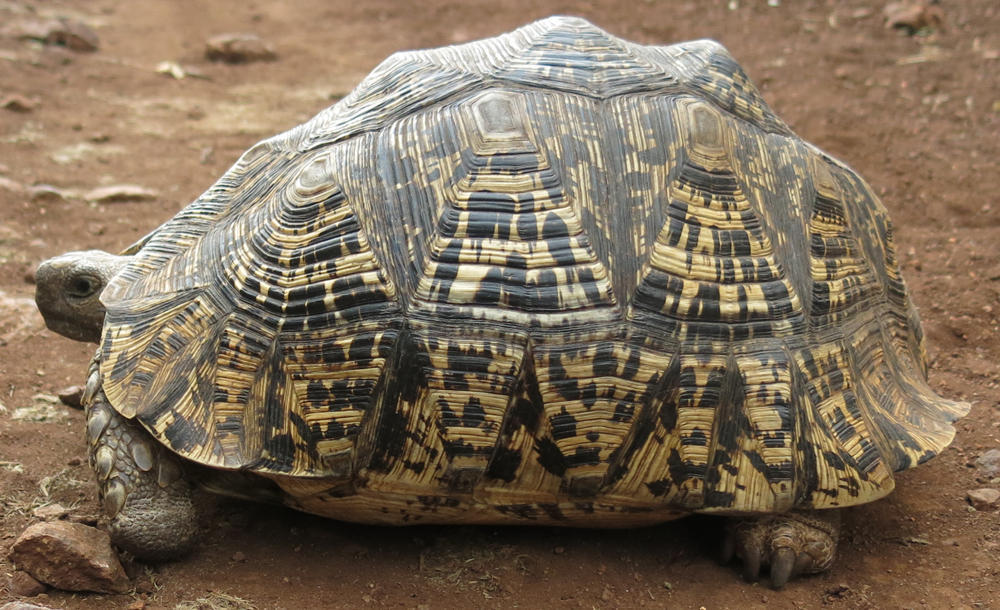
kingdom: Animalia
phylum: Chordata
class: Testudines
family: Testudinidae
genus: Stigmochelys
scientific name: Stigmochelys pardalis
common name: Leopard tortoise
